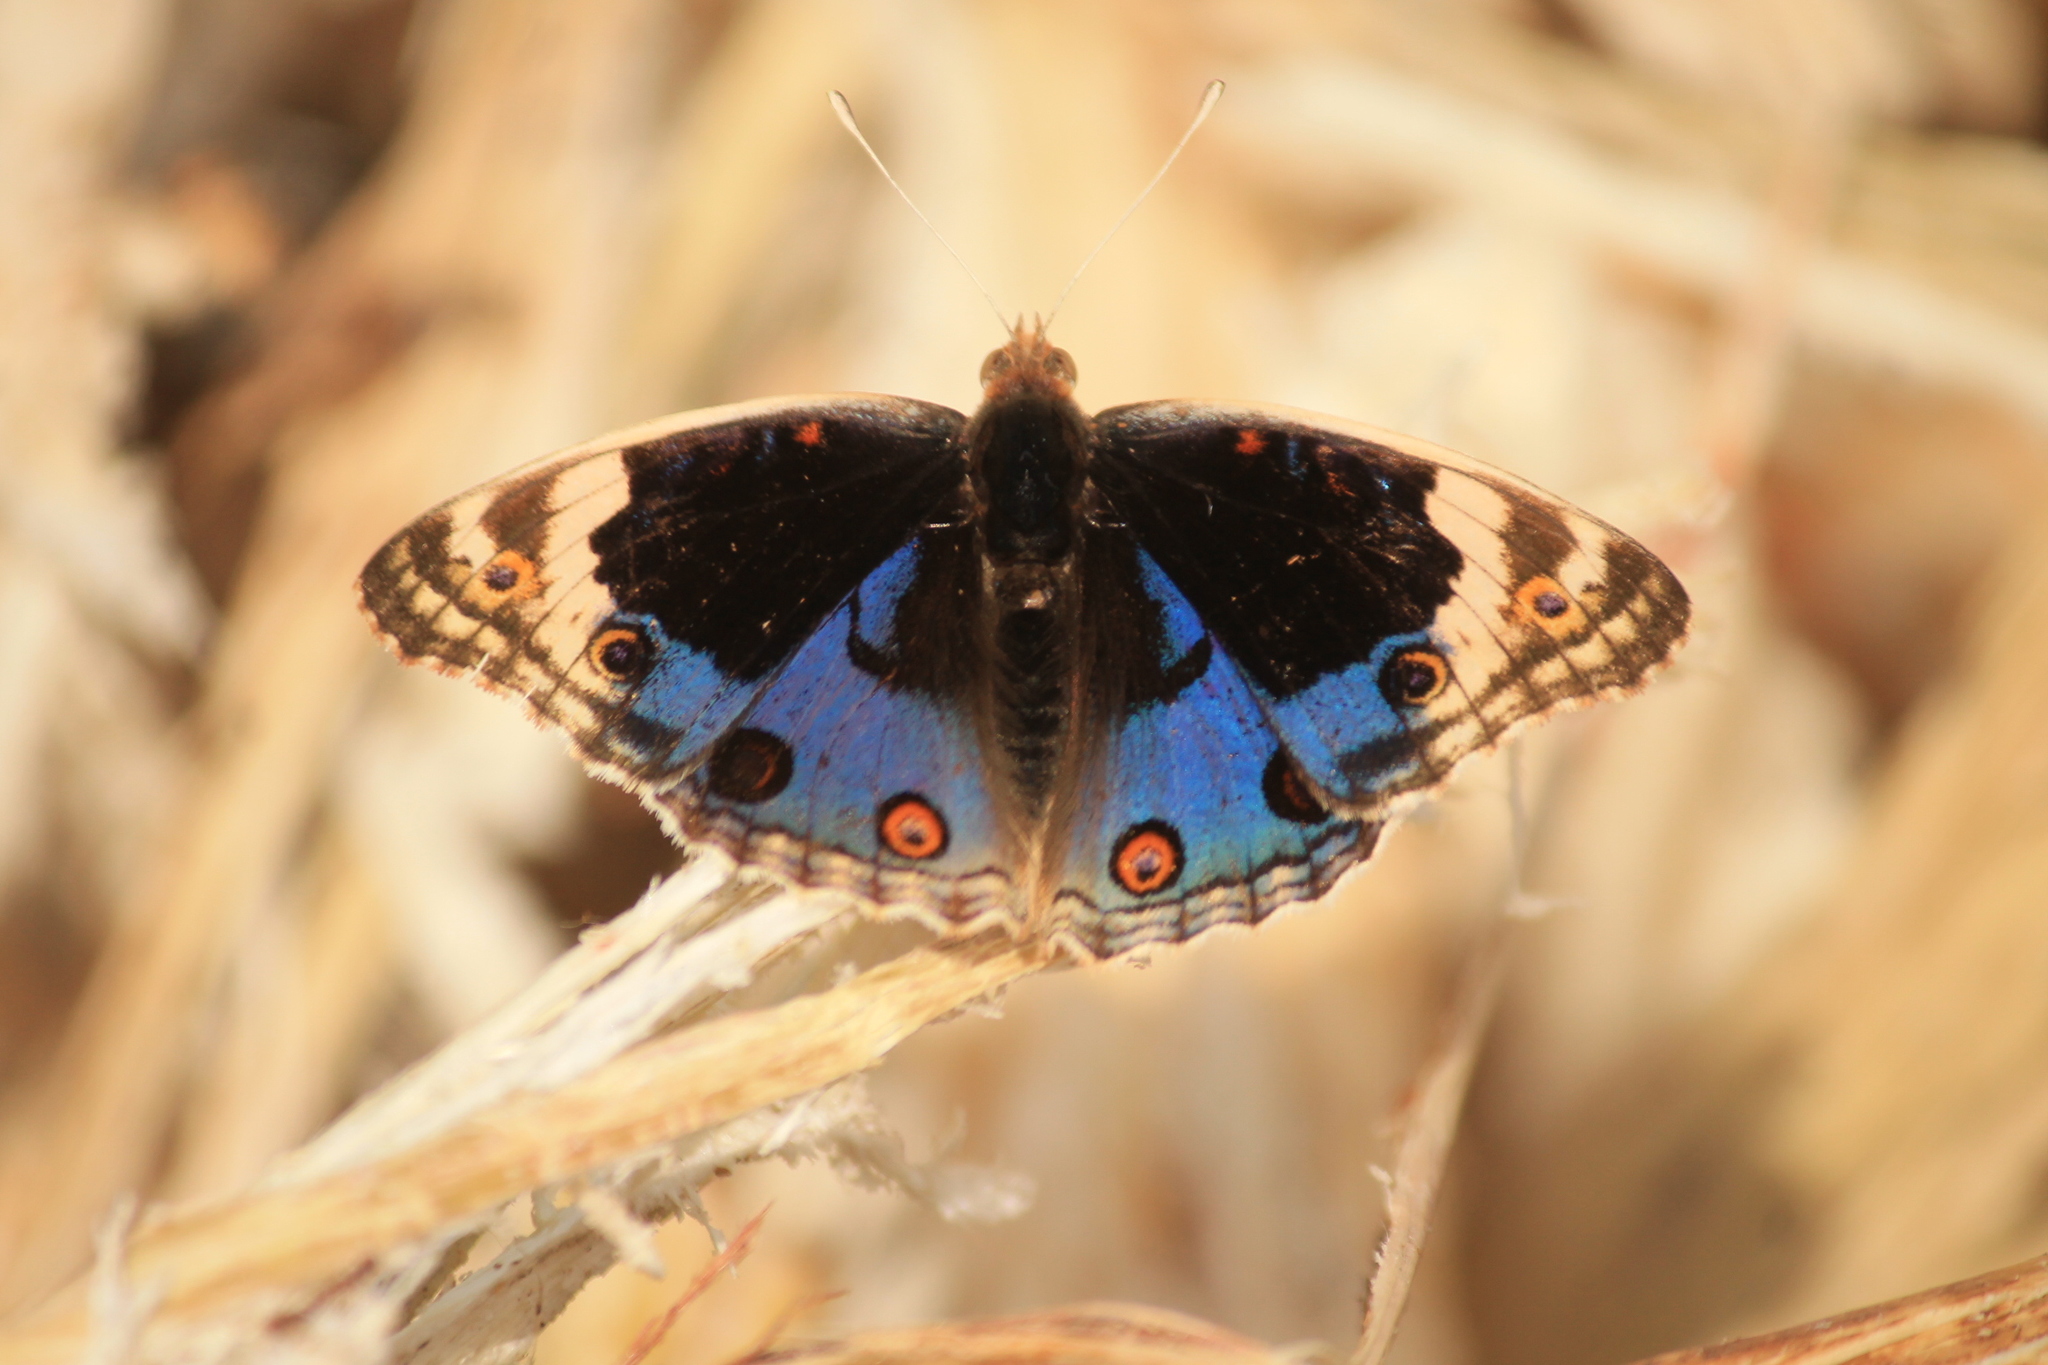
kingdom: Animalia
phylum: Arthropoda
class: Insecta
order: Lepidoptera
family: Nymphalidae
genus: Junonia
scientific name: Junonia orithya
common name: Blue pansy
